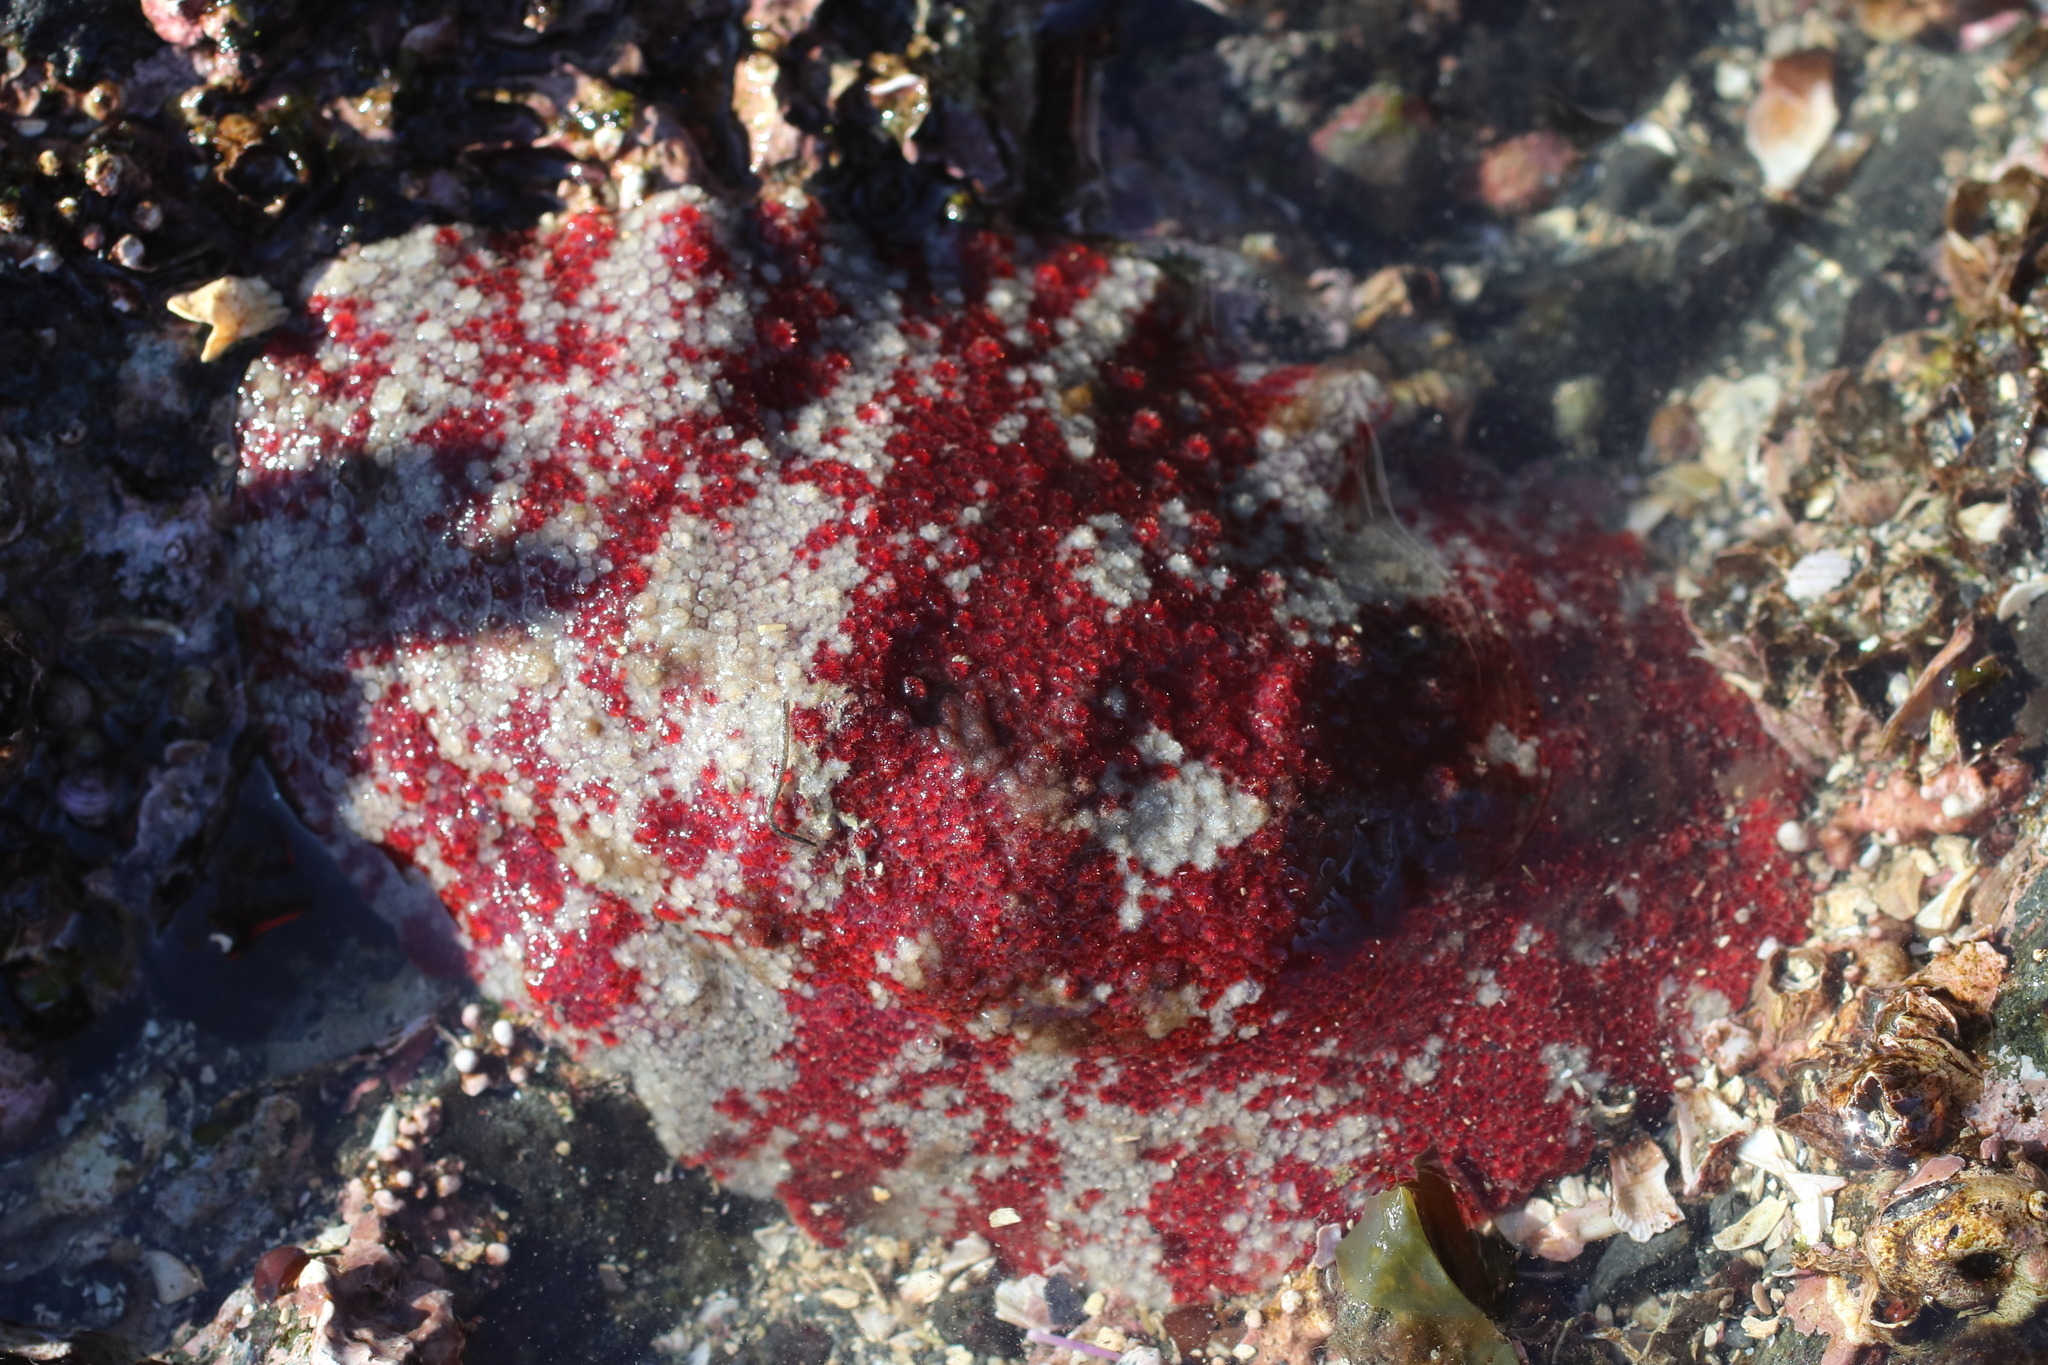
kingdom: Animalia
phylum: Mollusca
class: Polyplacophora
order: Chitonida
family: Acanthochitonidae
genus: Cryptochiton
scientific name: Cryptochiton stelleri
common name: Giant pacific chiton
